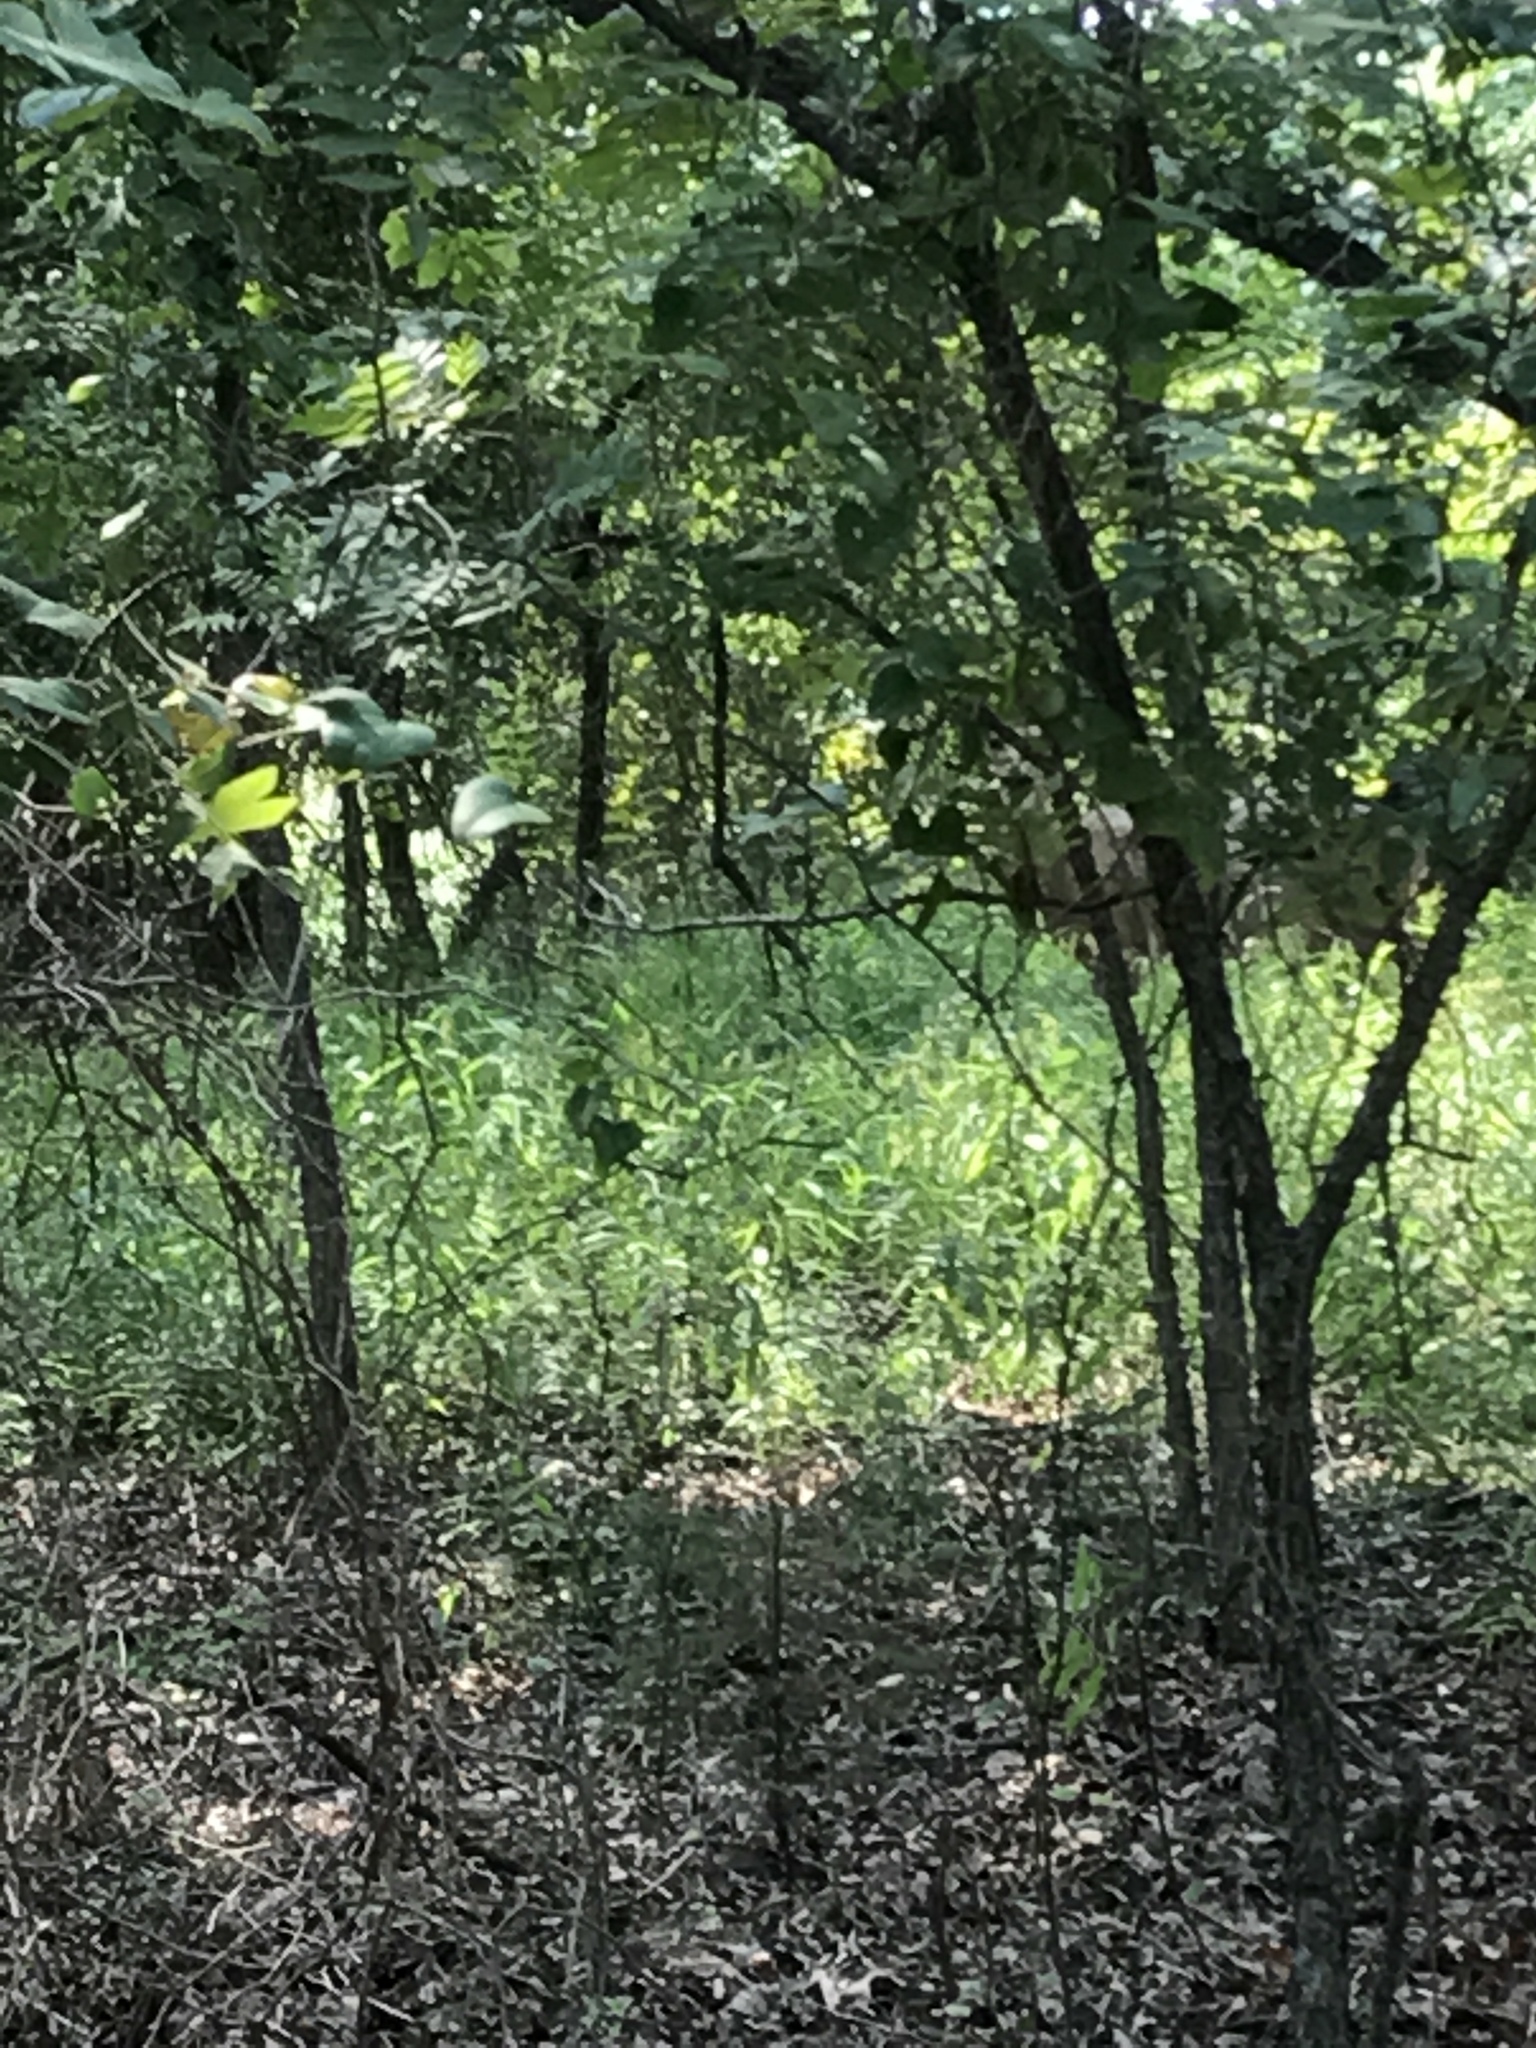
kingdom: Animalia
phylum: Chordata
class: Mammalia
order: Artiodactyla
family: Cervidae
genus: Odocoileus
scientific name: Odocoileus virginianus
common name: White-tailed deer
